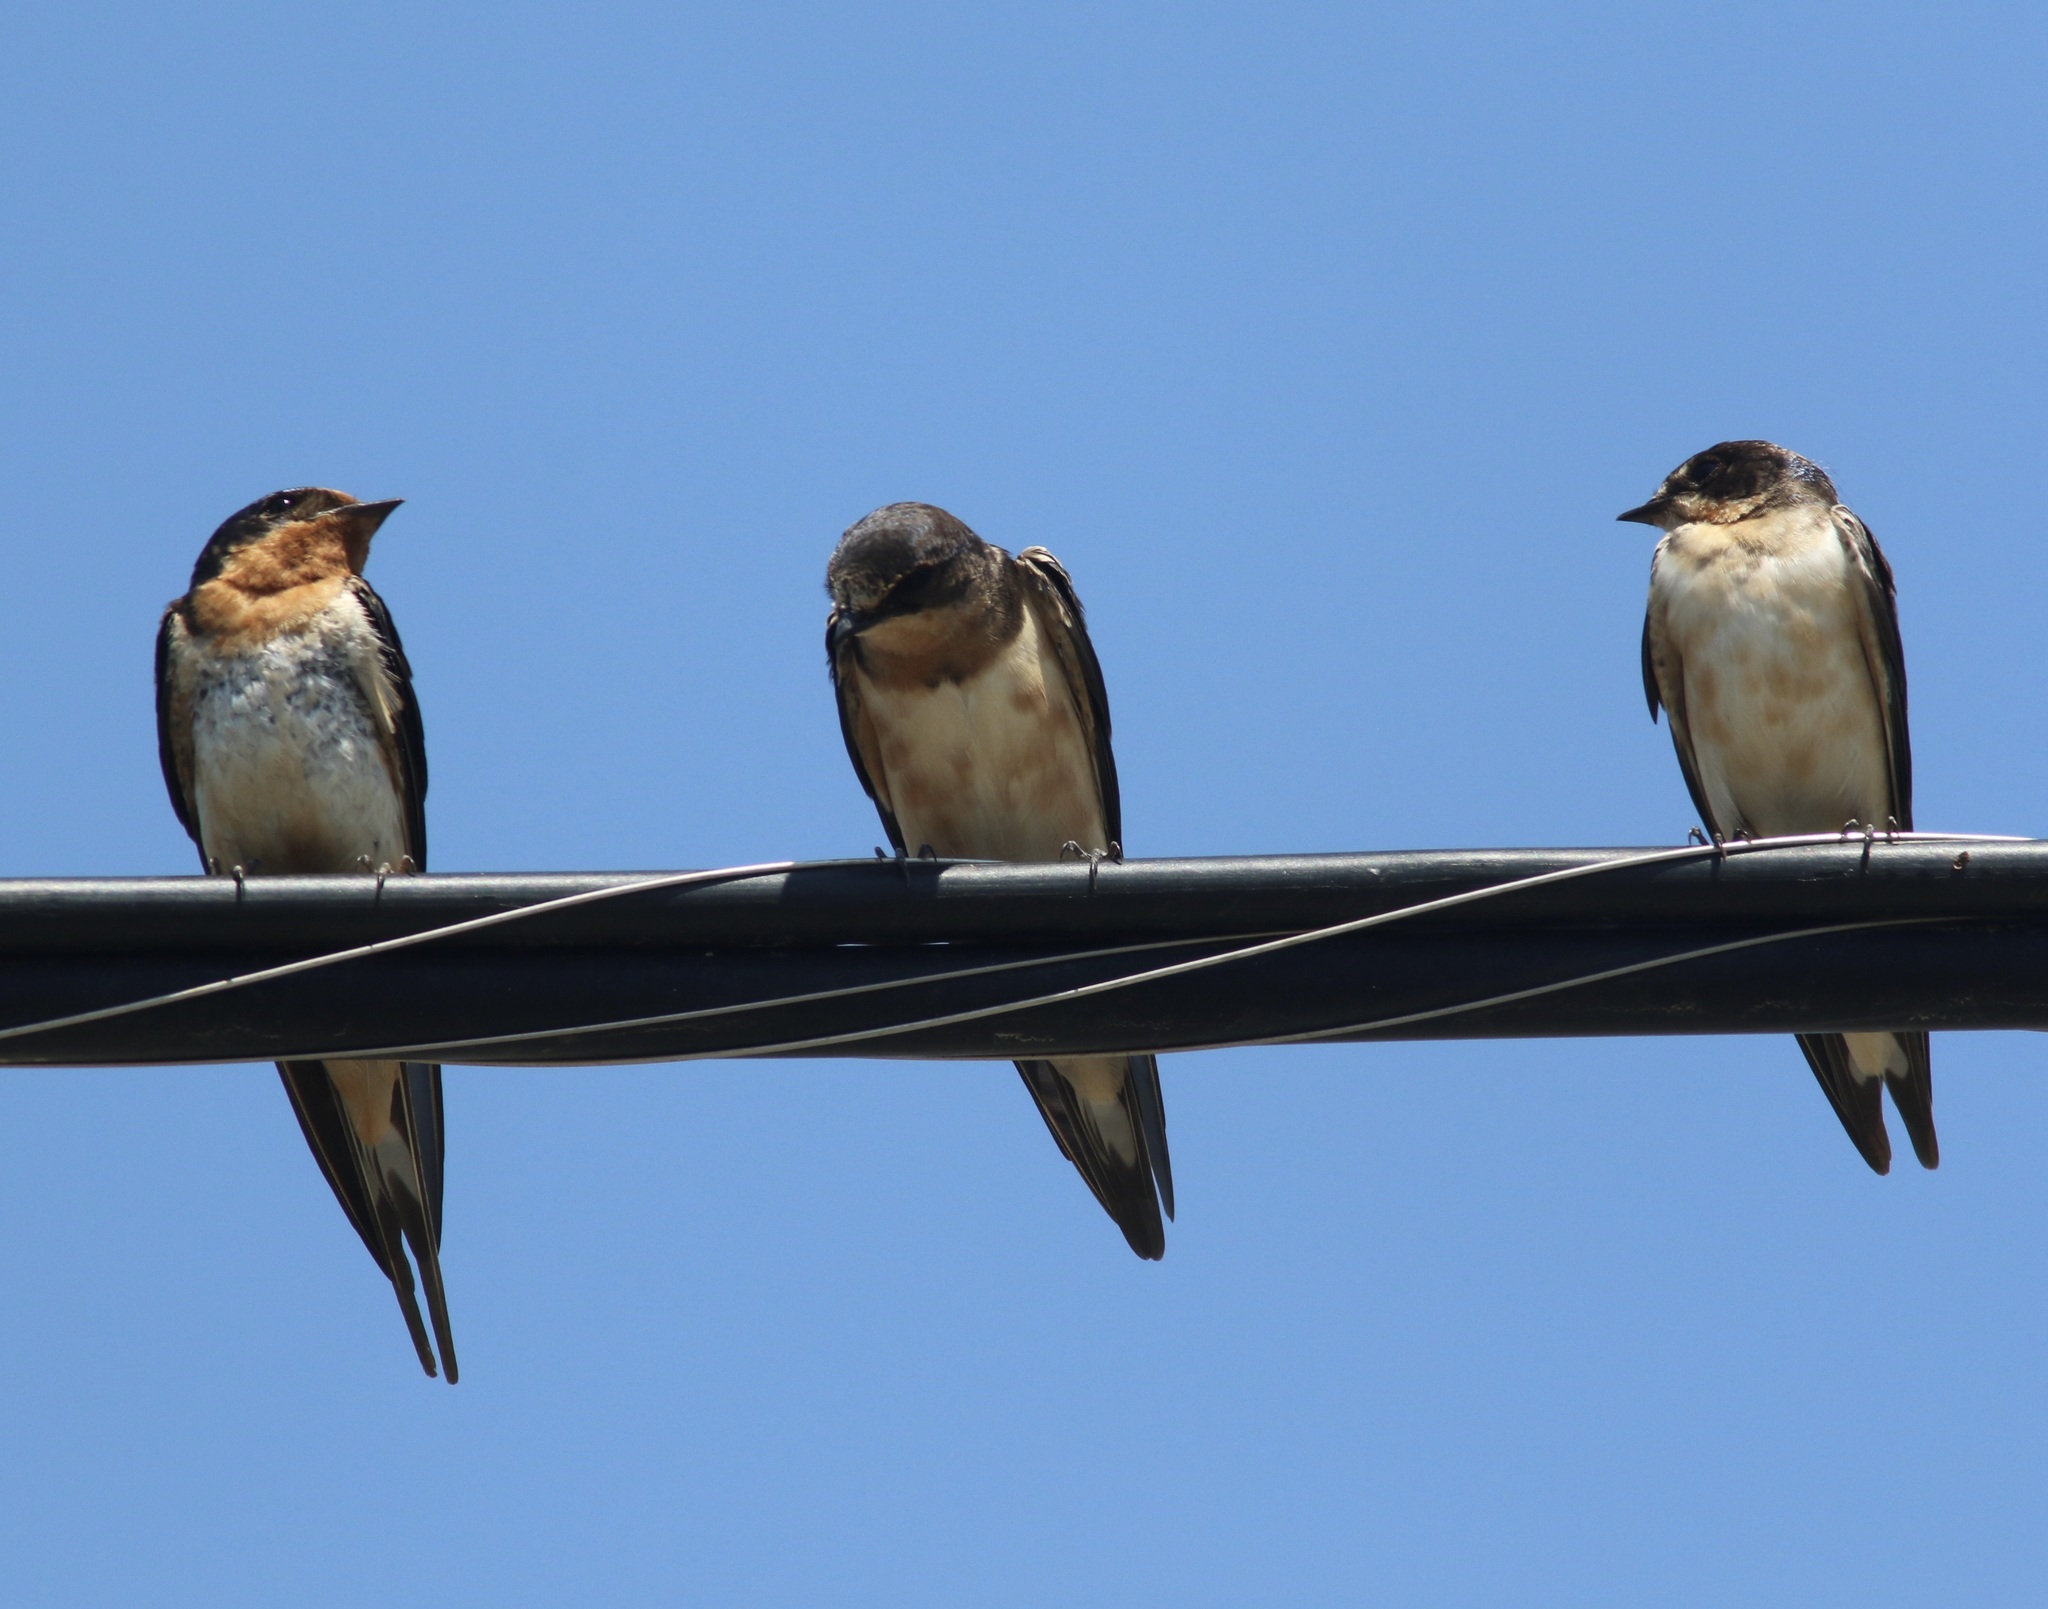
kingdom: Animalia
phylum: Chordata
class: Aves
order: Passeriformes
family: Hirundinidae
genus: Hirundo
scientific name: Hirundo rustica
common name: Barn swallow
